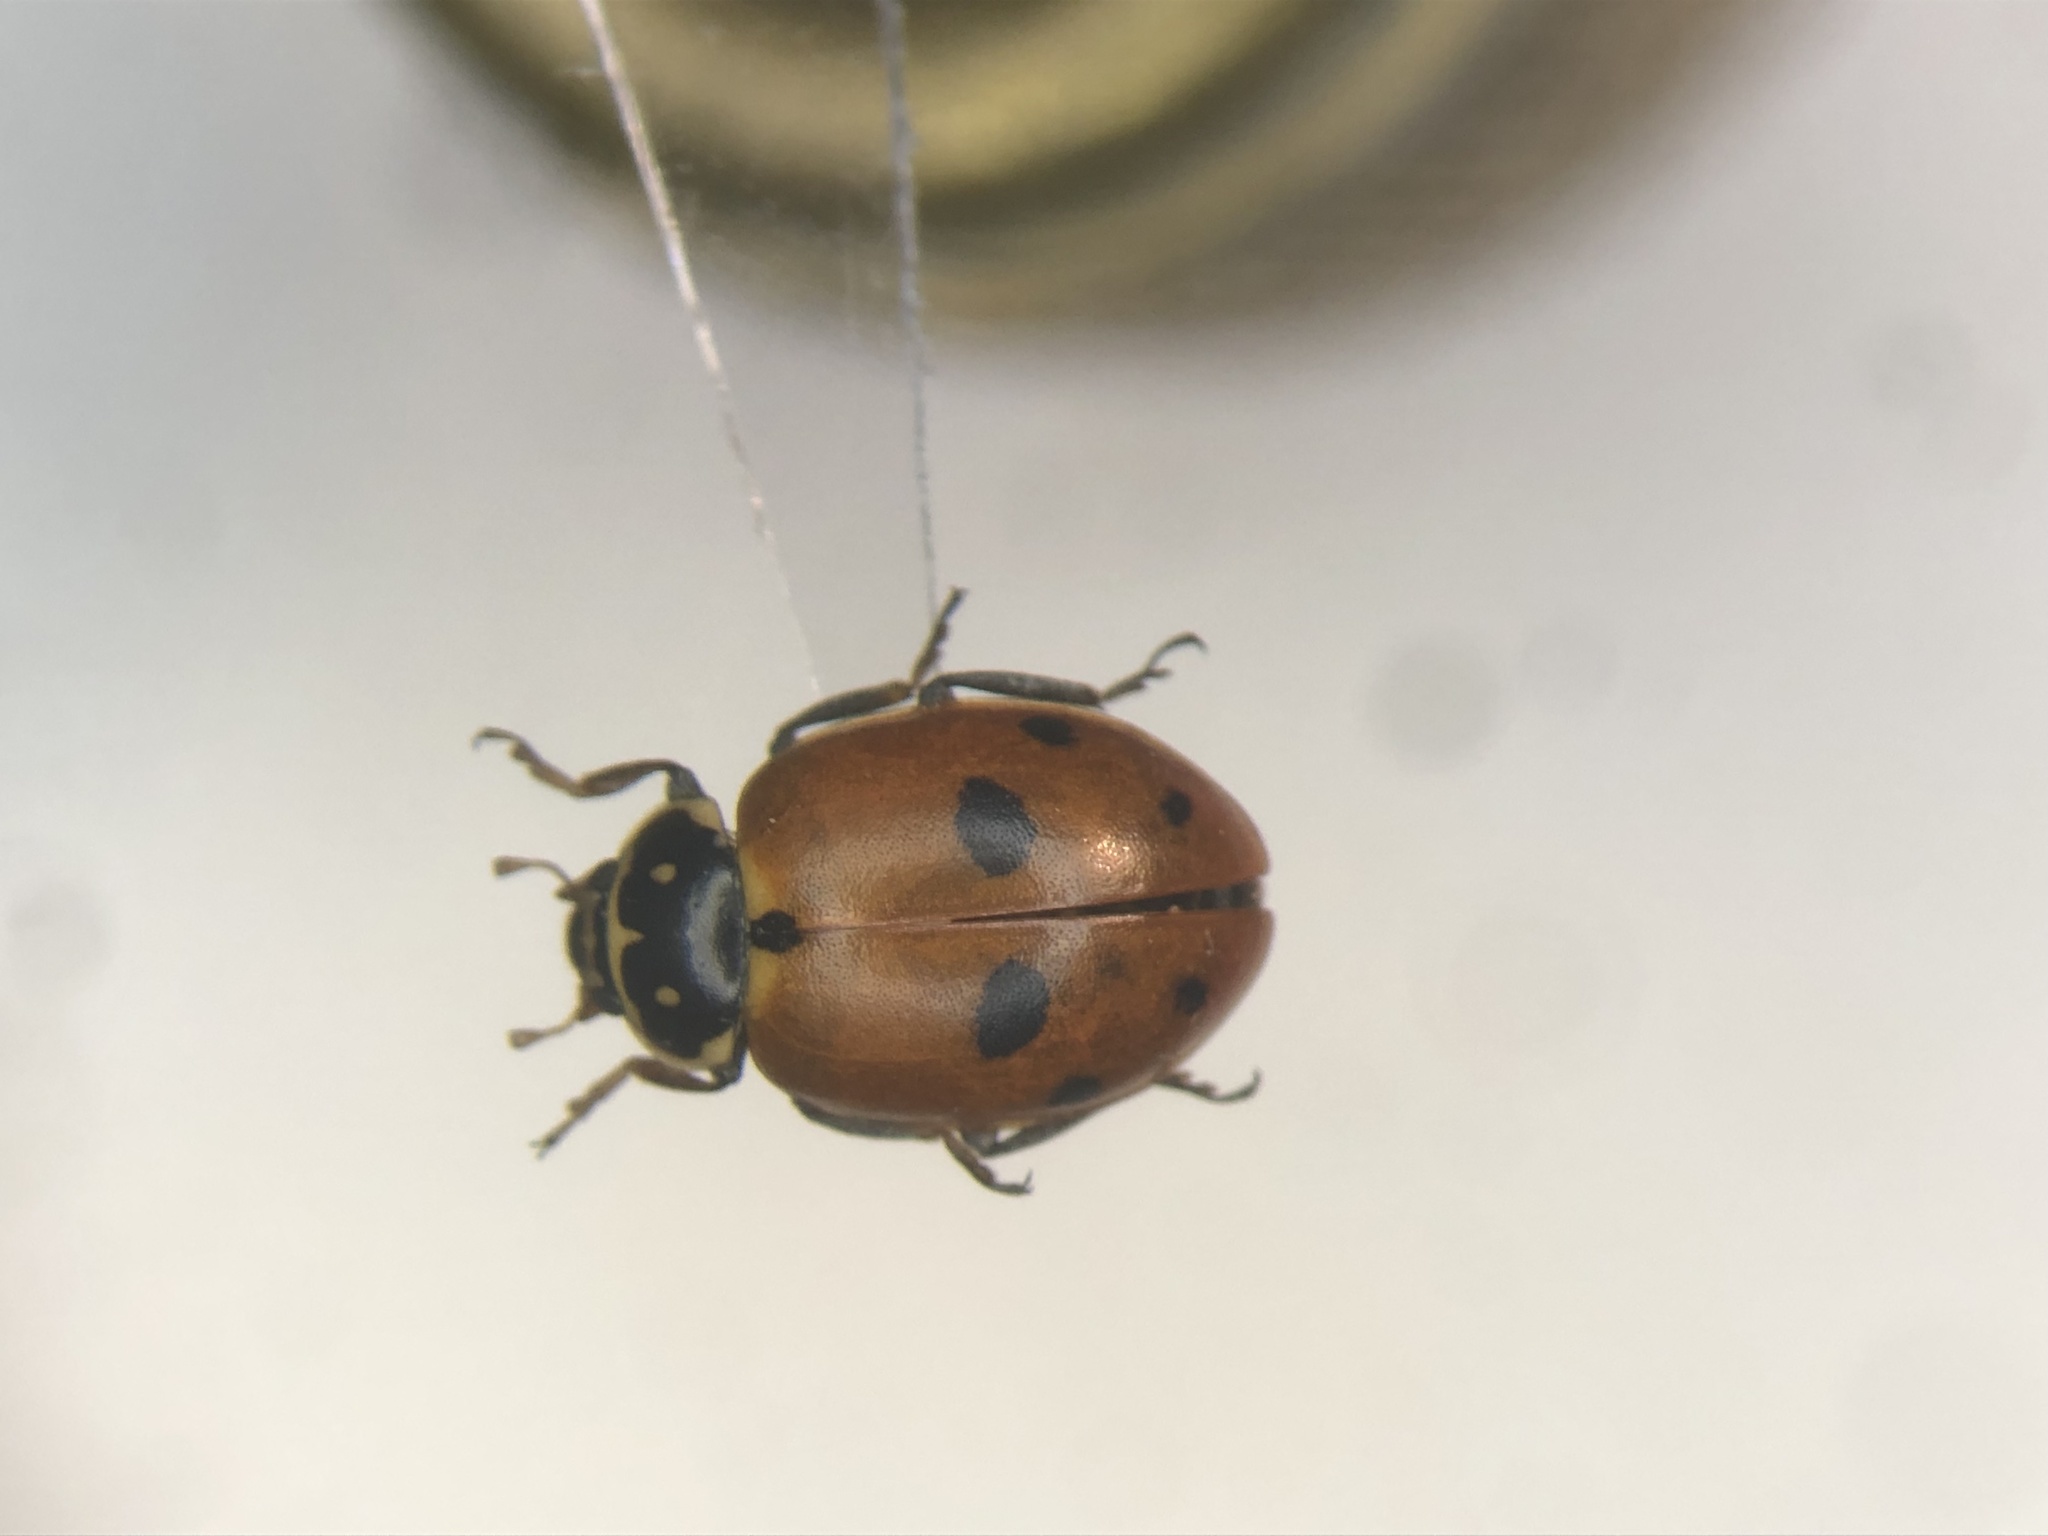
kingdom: Animalia
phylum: Arthropoda
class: Insecta
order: Coleoptera
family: Coccinellidae
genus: Hippodamia
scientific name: Hippodamia variegata
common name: Ladybird beetle
